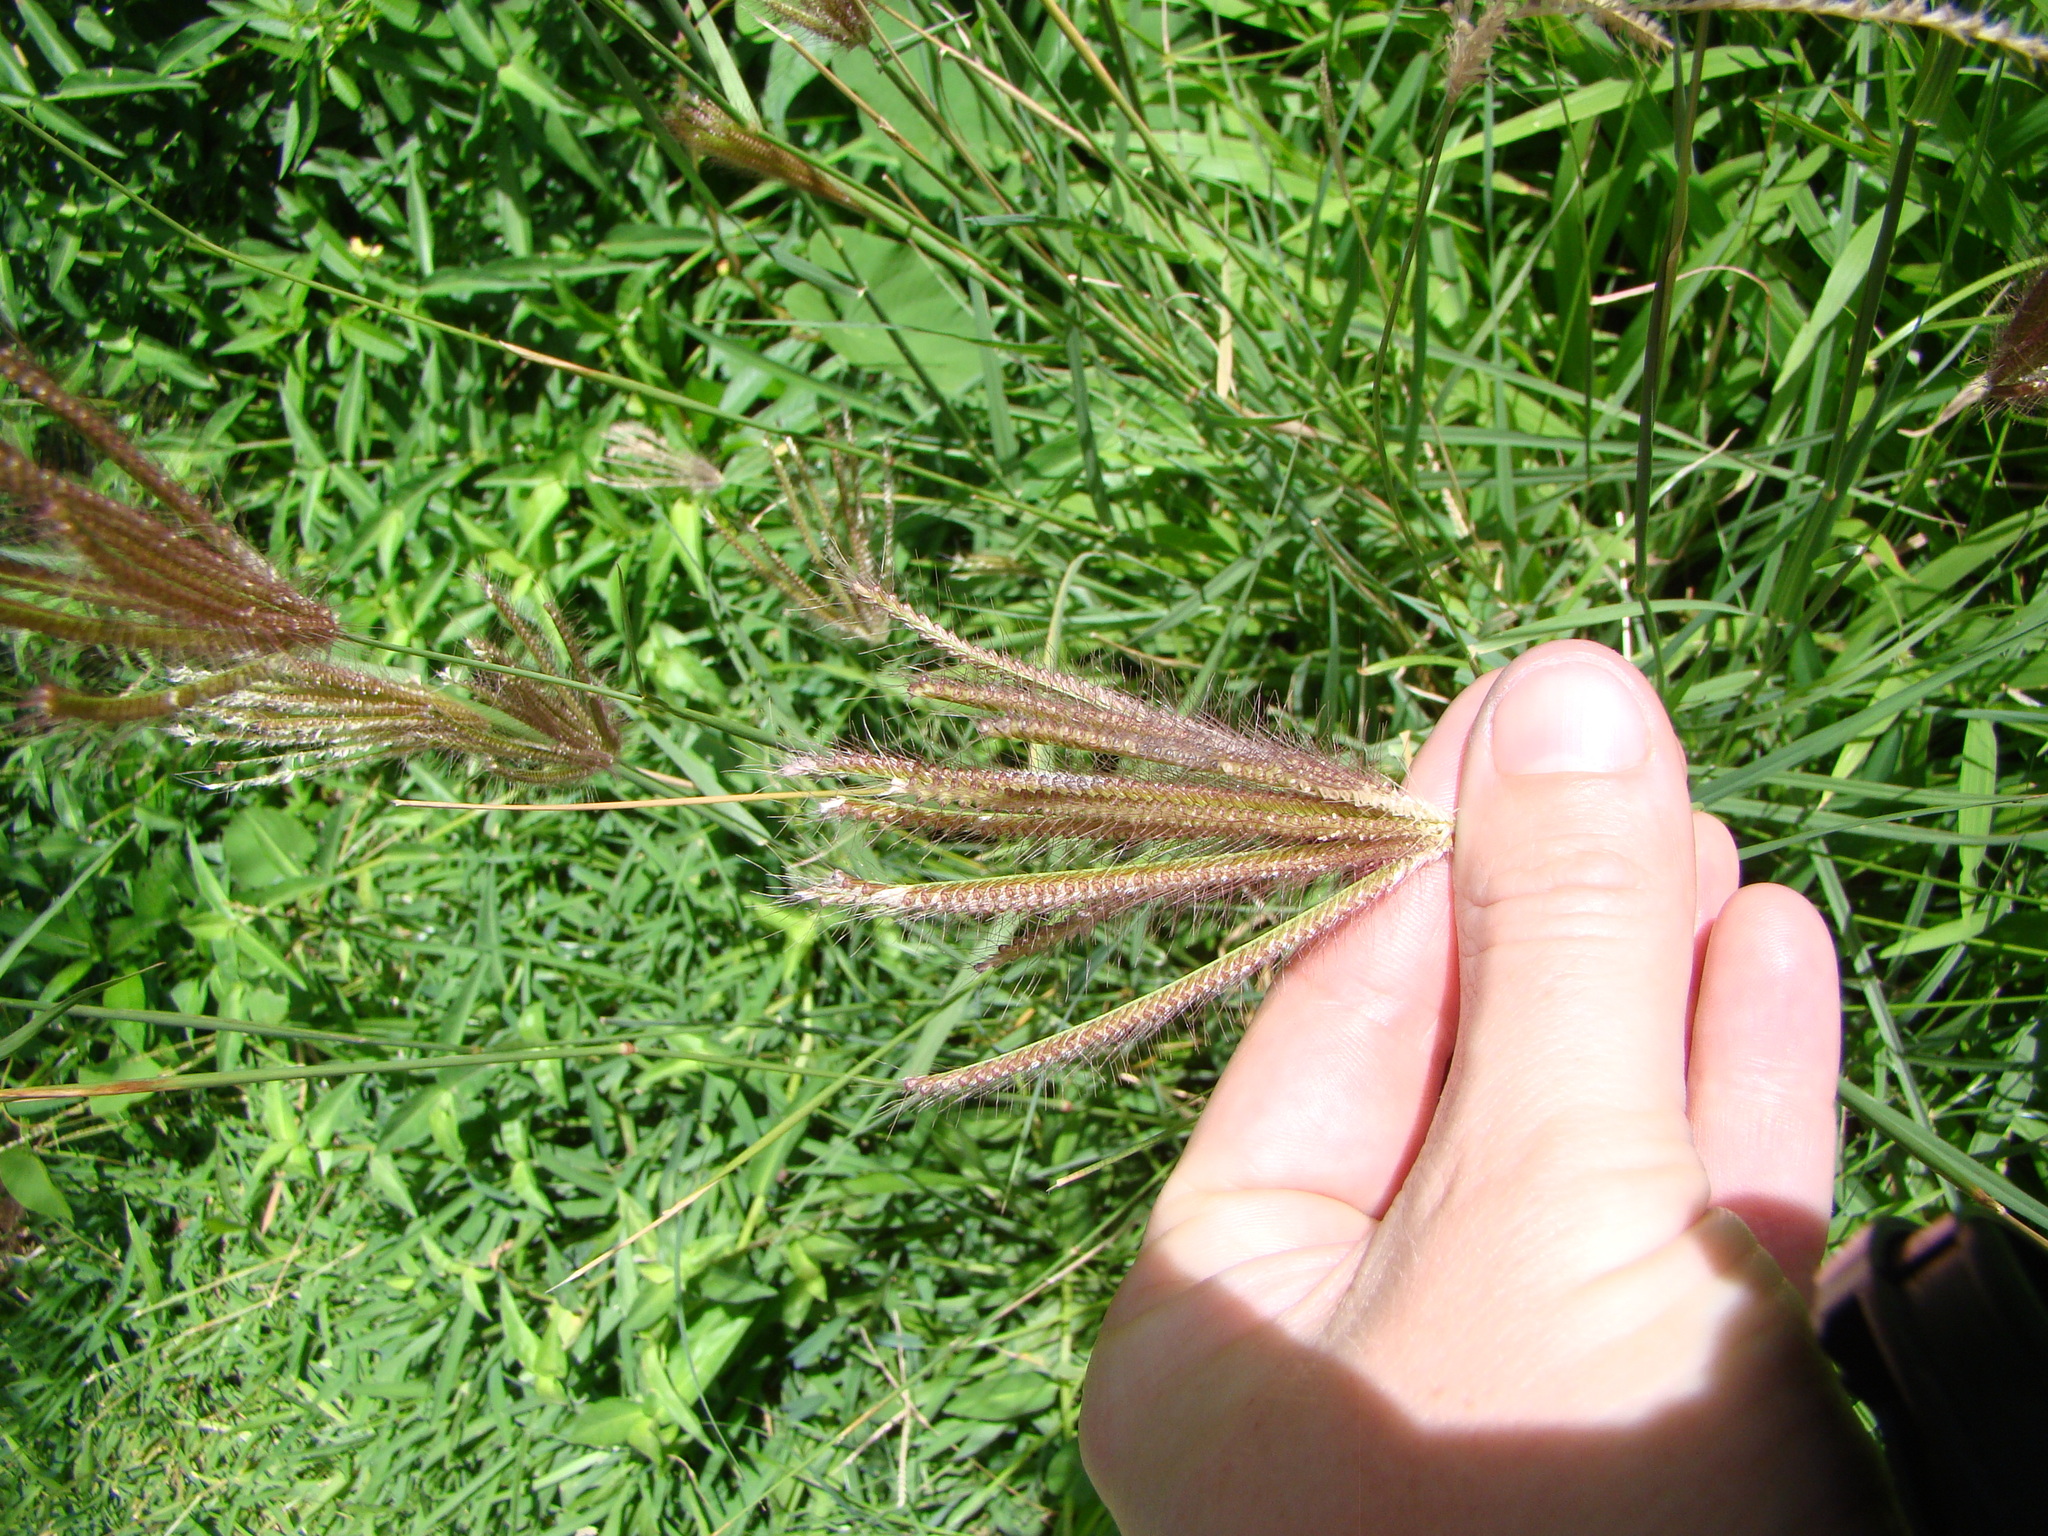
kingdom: Plantae
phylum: Tracheophyta
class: Liliopsida
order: Poales
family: Poaceae
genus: Chloris
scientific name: Chloris barbata
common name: Swollen fingergrass
